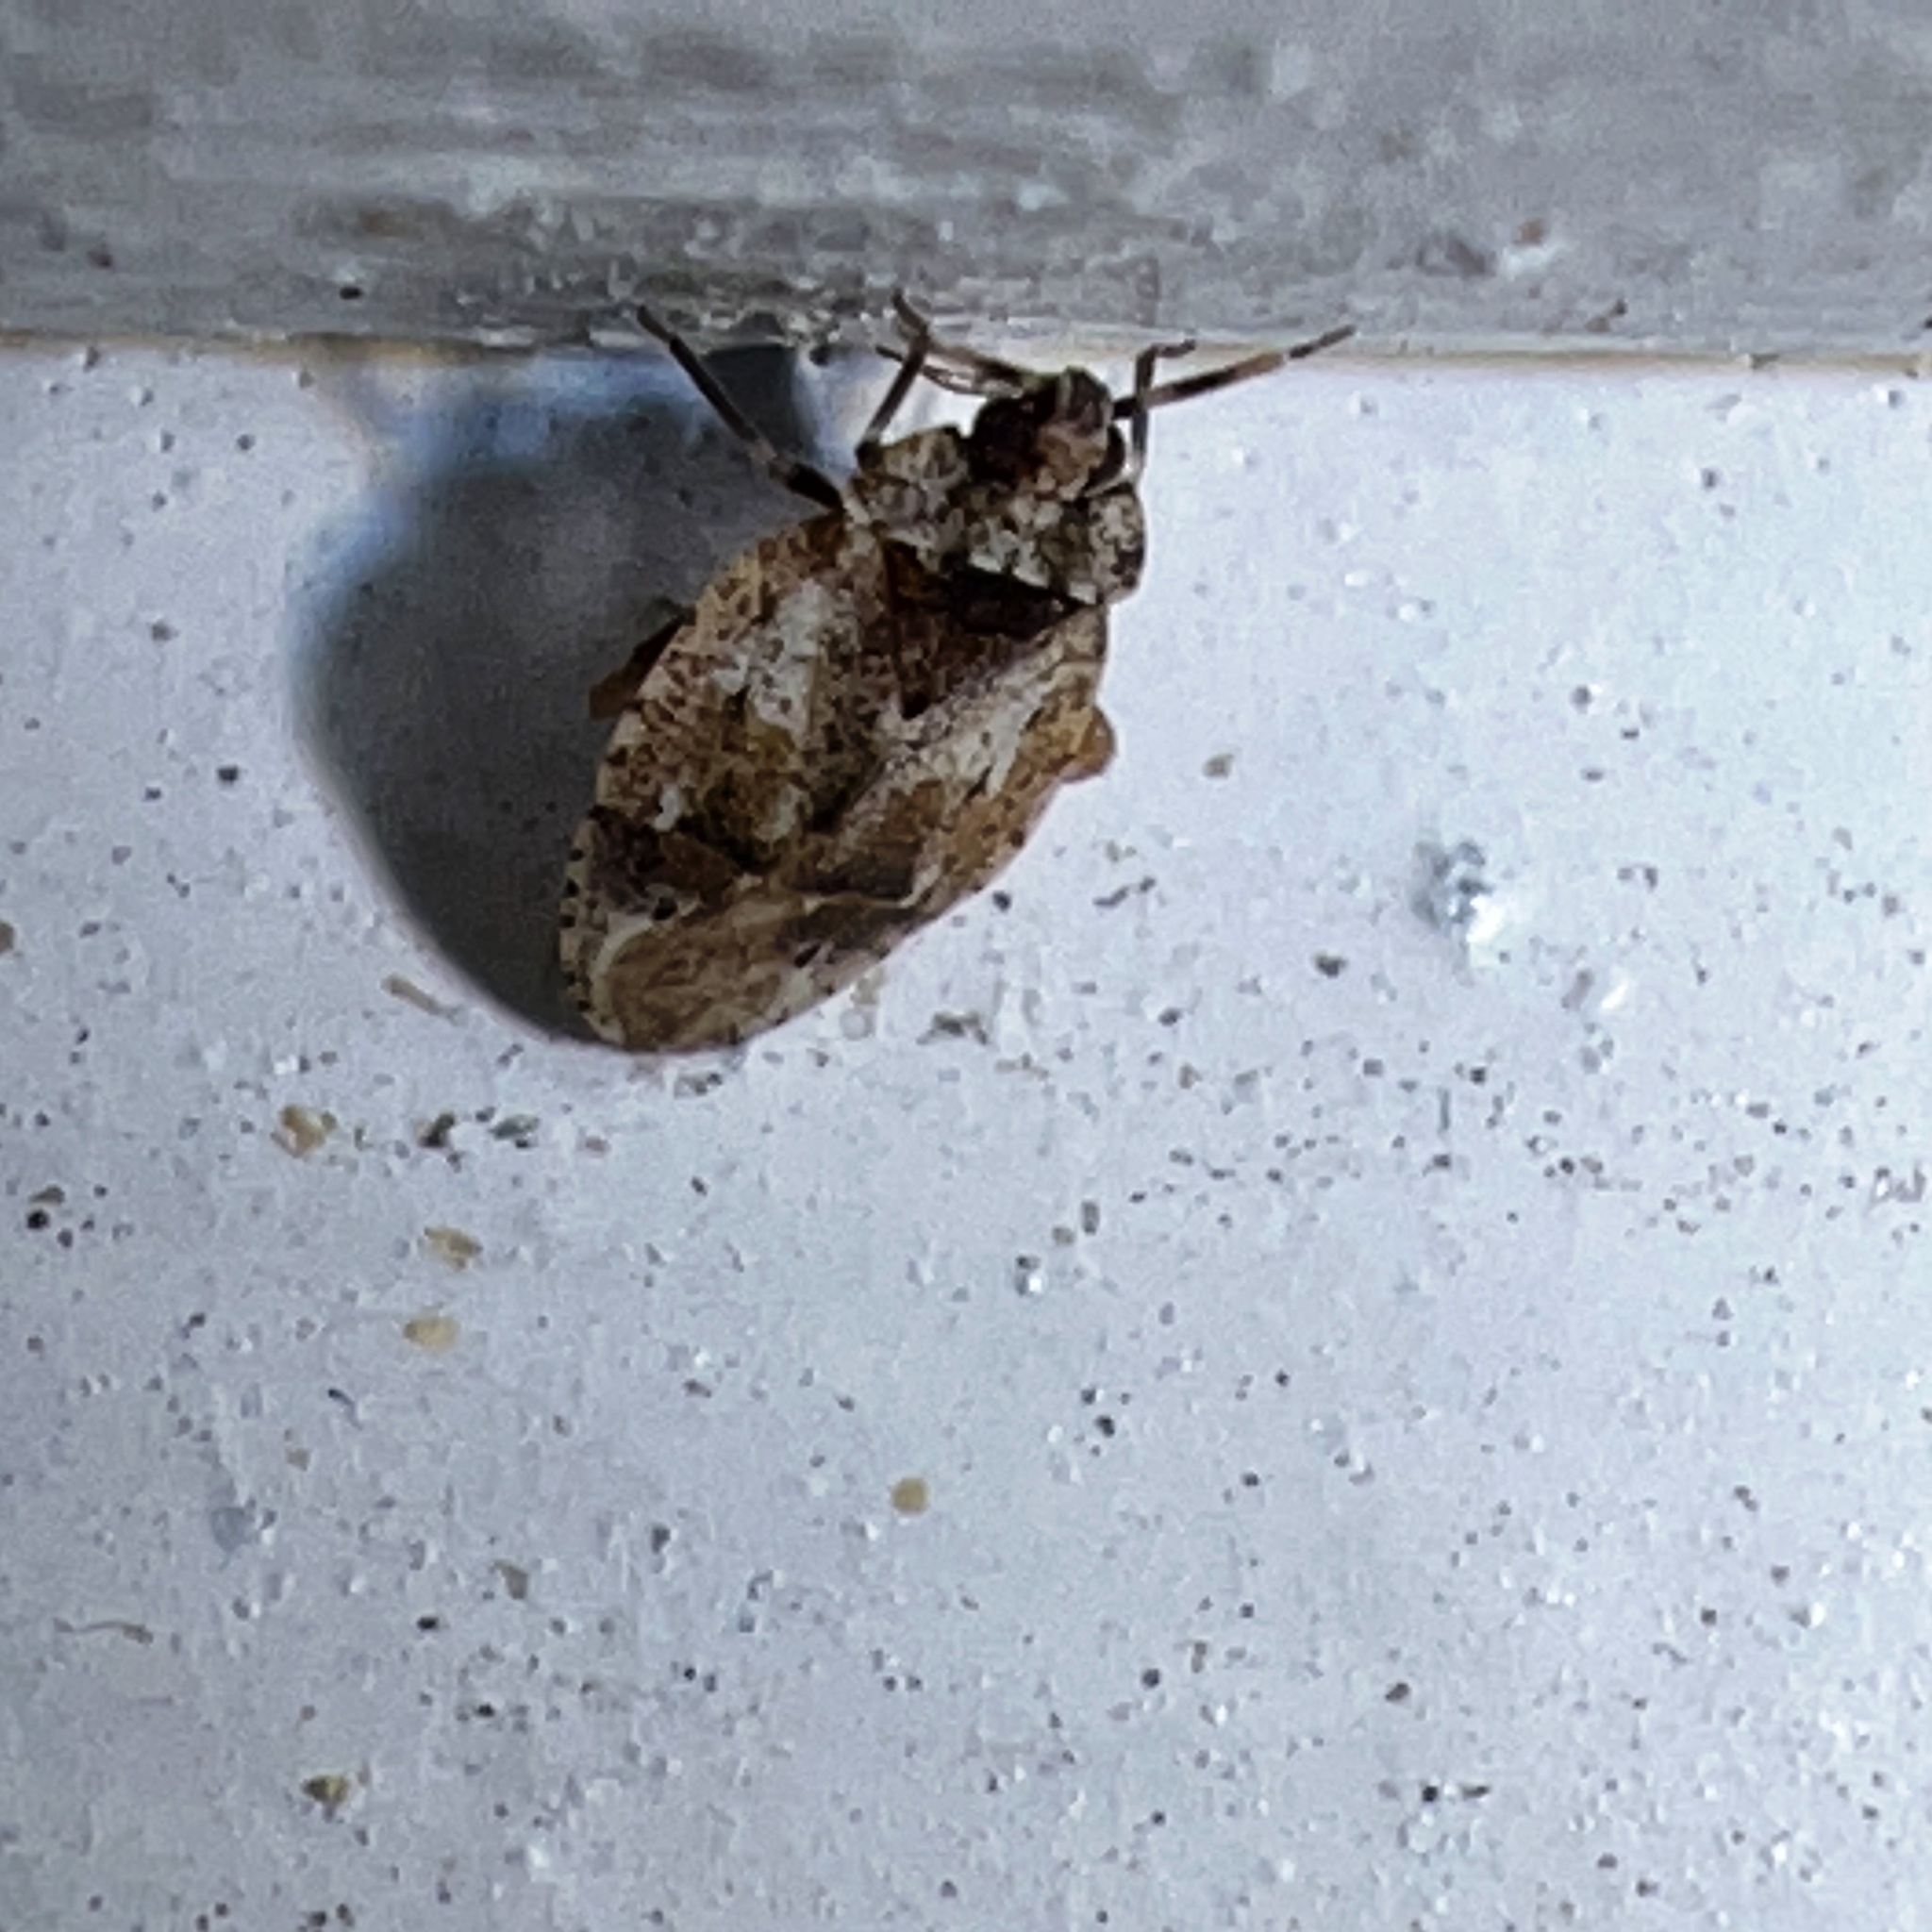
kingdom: Animalia
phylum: Arthropoda
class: Insecta
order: Hemiptera
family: Miridae
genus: Diphleps
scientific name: Diphleps unica
